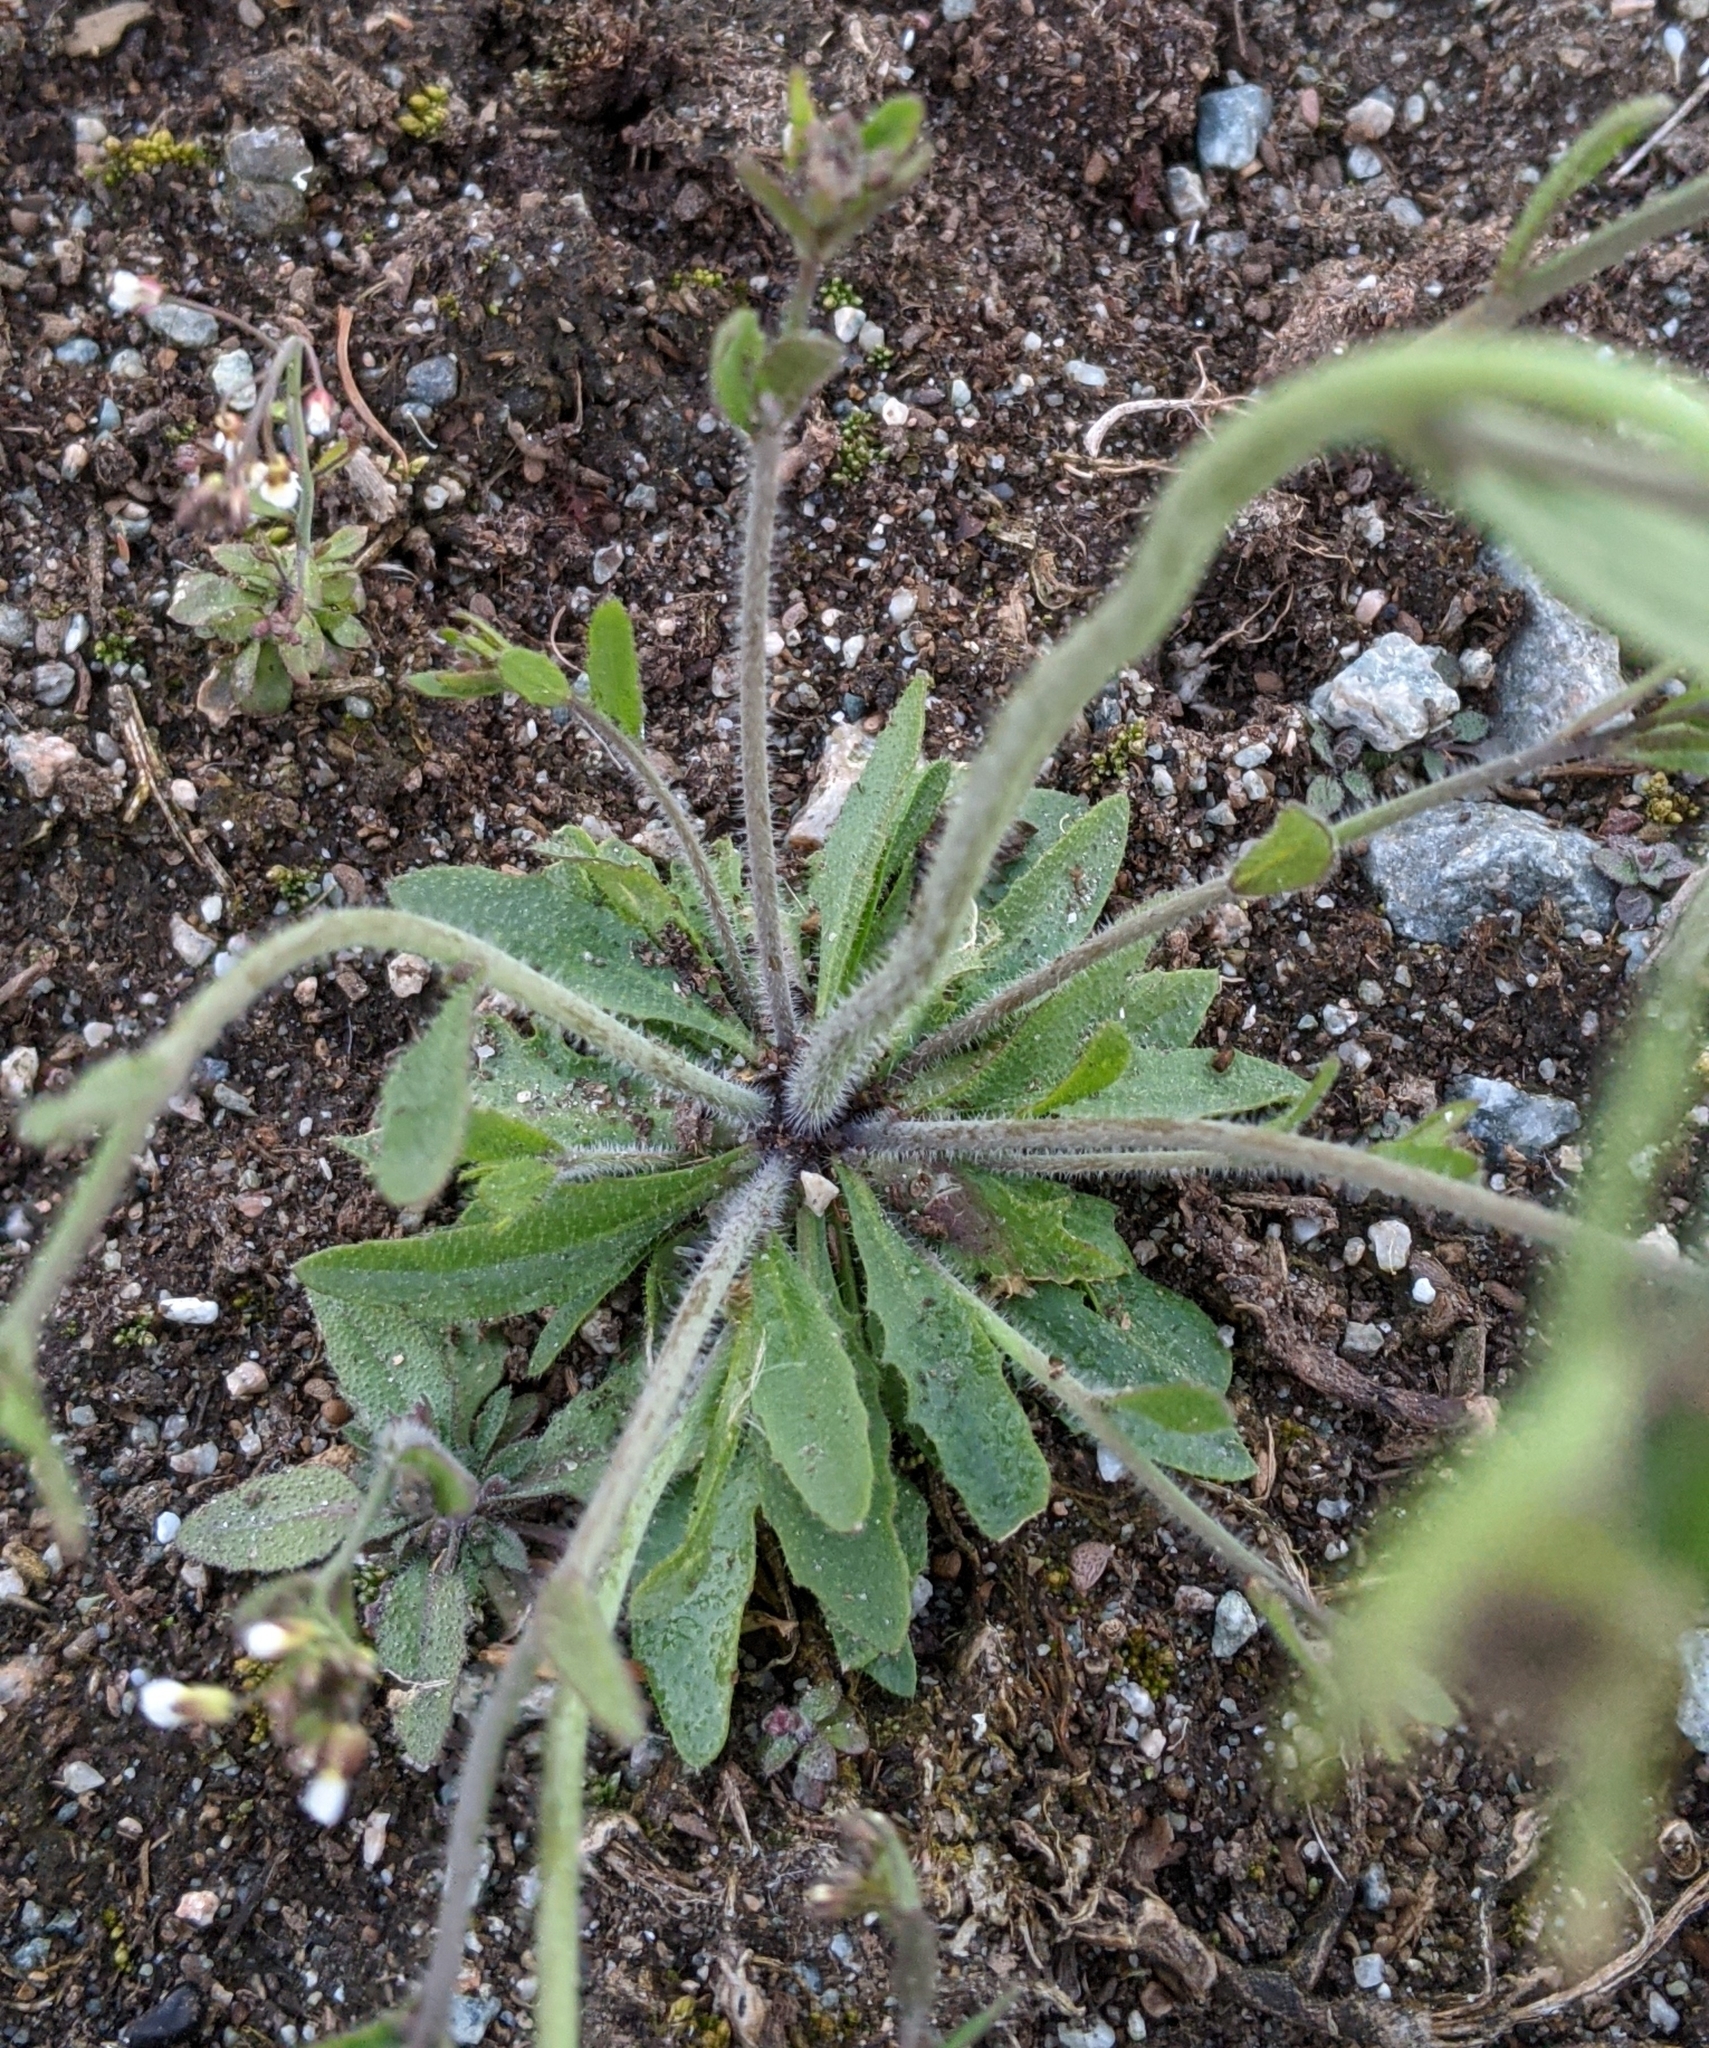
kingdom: Plantae
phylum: Tracheophyta
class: Magnoliopsida
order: Brassicales
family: Brassicaceae
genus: Arabidopsis
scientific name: Arabidopsis thaliana
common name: Thale cress
